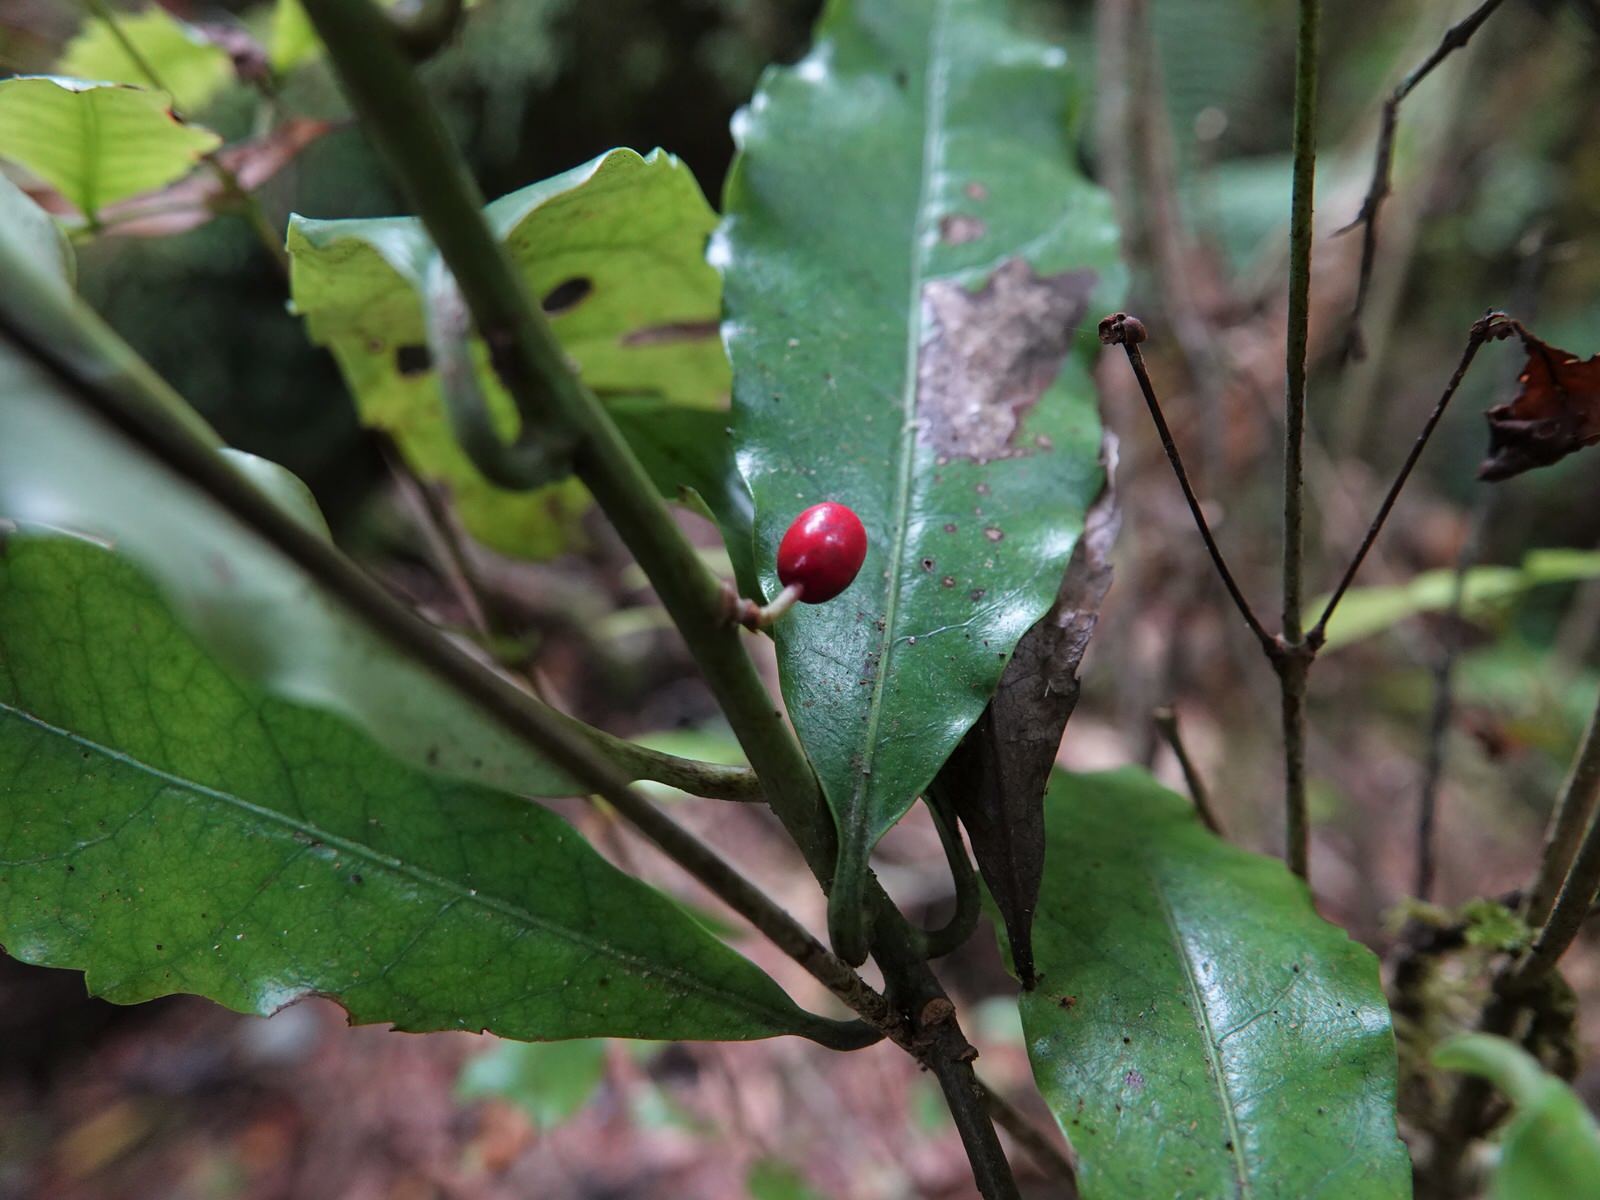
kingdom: Plantae
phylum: Tracheophyta
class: Magnoliopsida
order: Asterales
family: Alseuosmiaceae
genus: Alseuosmia
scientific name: Alseuosmia macrophylla
